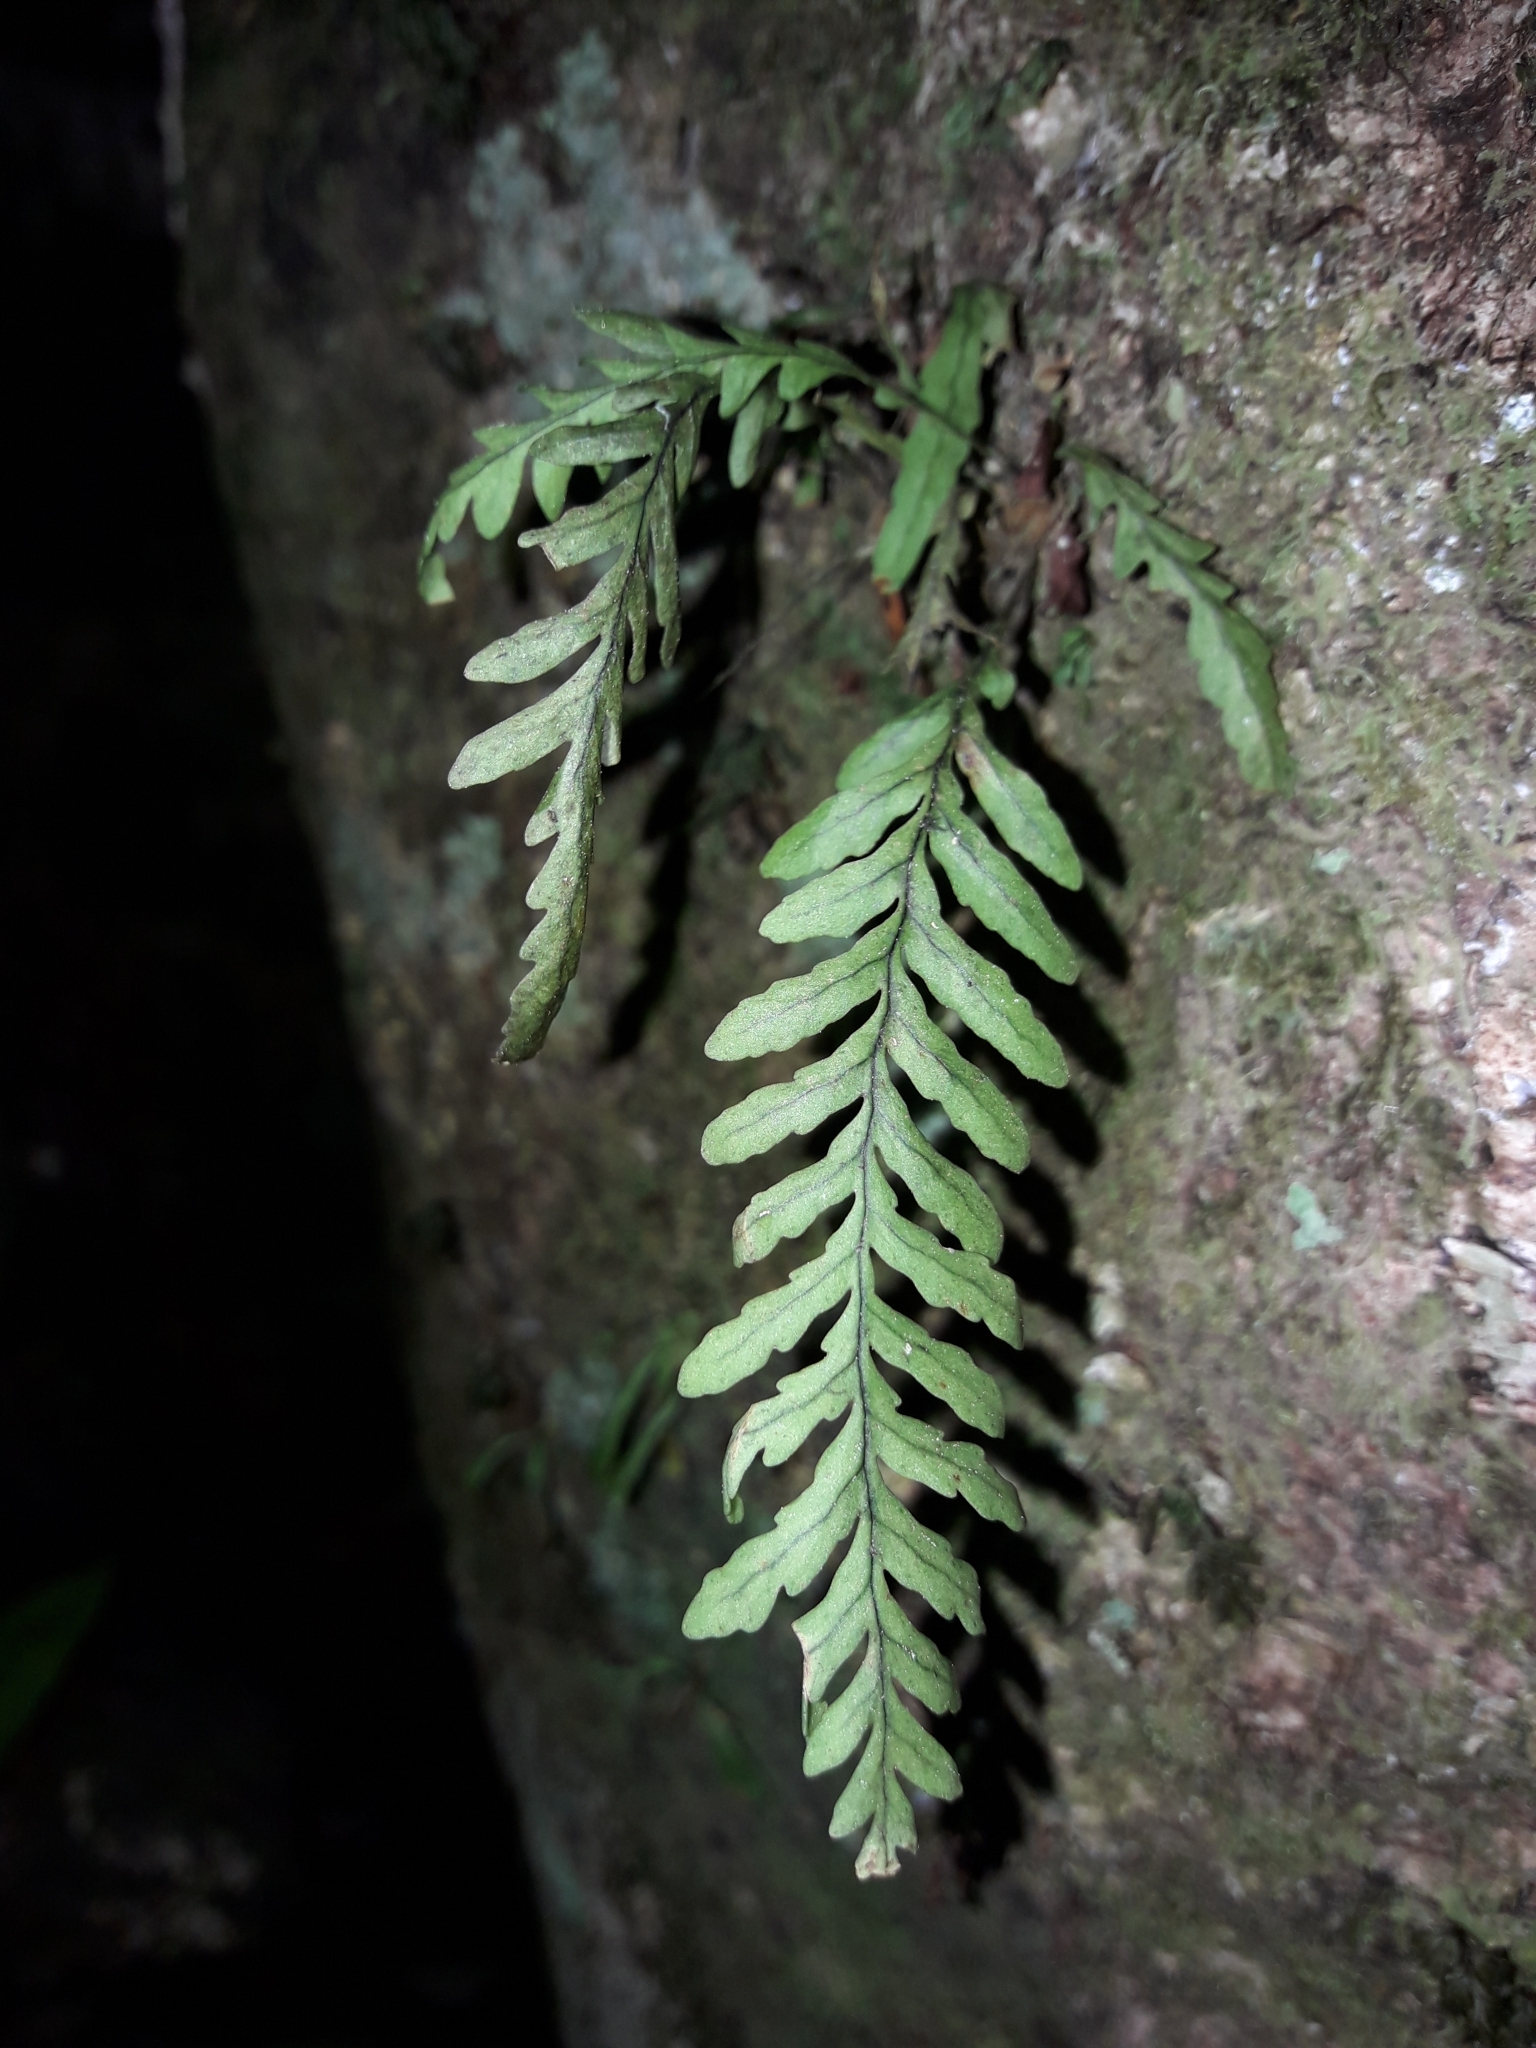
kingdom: Plantae
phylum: Tracheophyta
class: Polypodiopsida
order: Polypodiales
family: Polypodiaceae
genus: Notogrammitis
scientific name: Notogrammitis heterophylla
